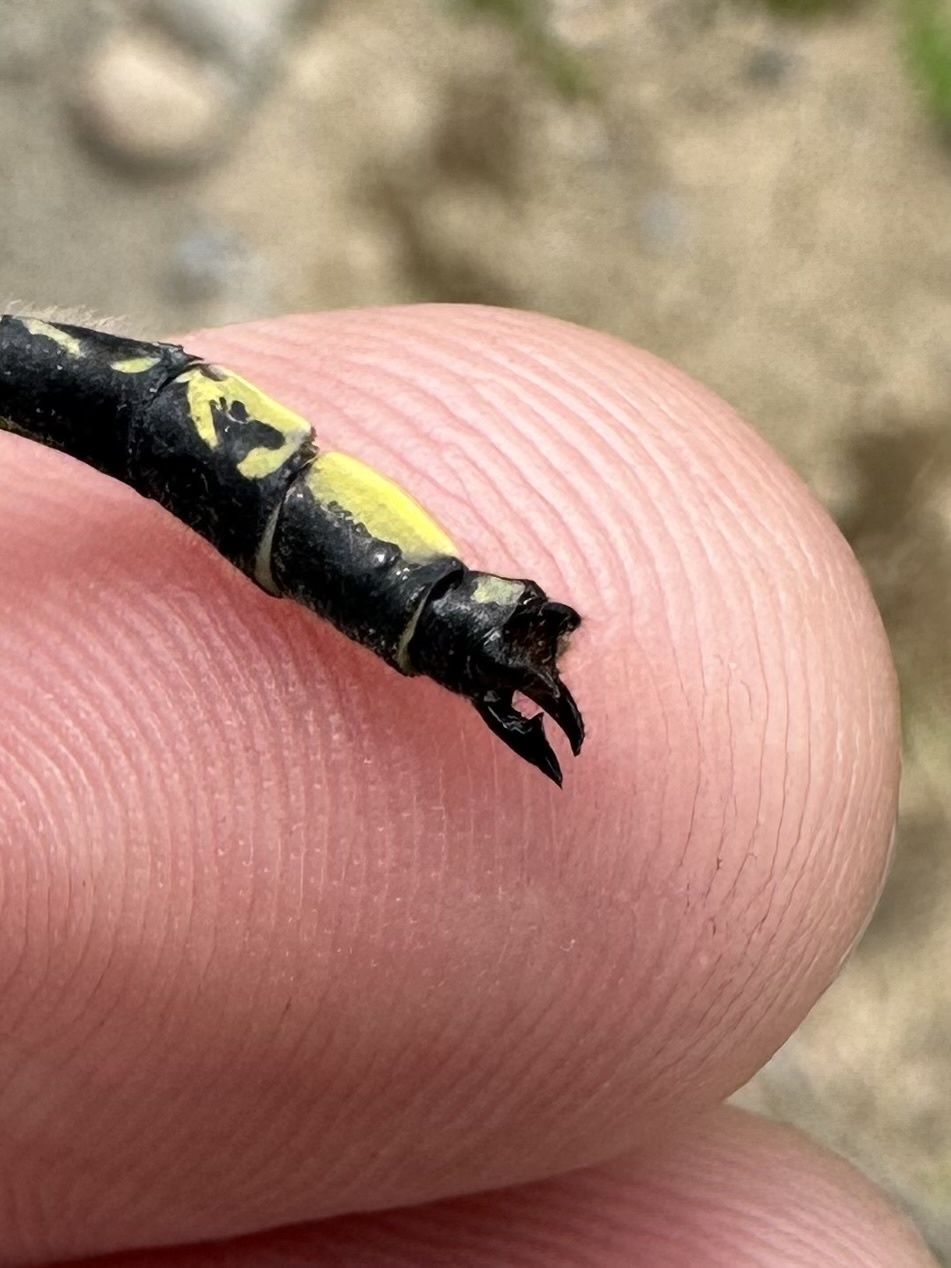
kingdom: Animalia
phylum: Arthropoda
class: Insecta
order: Odonata
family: Gomphidae
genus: Phanogomphus
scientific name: Phanogomphus descriptus
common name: Harpoon clubtail
